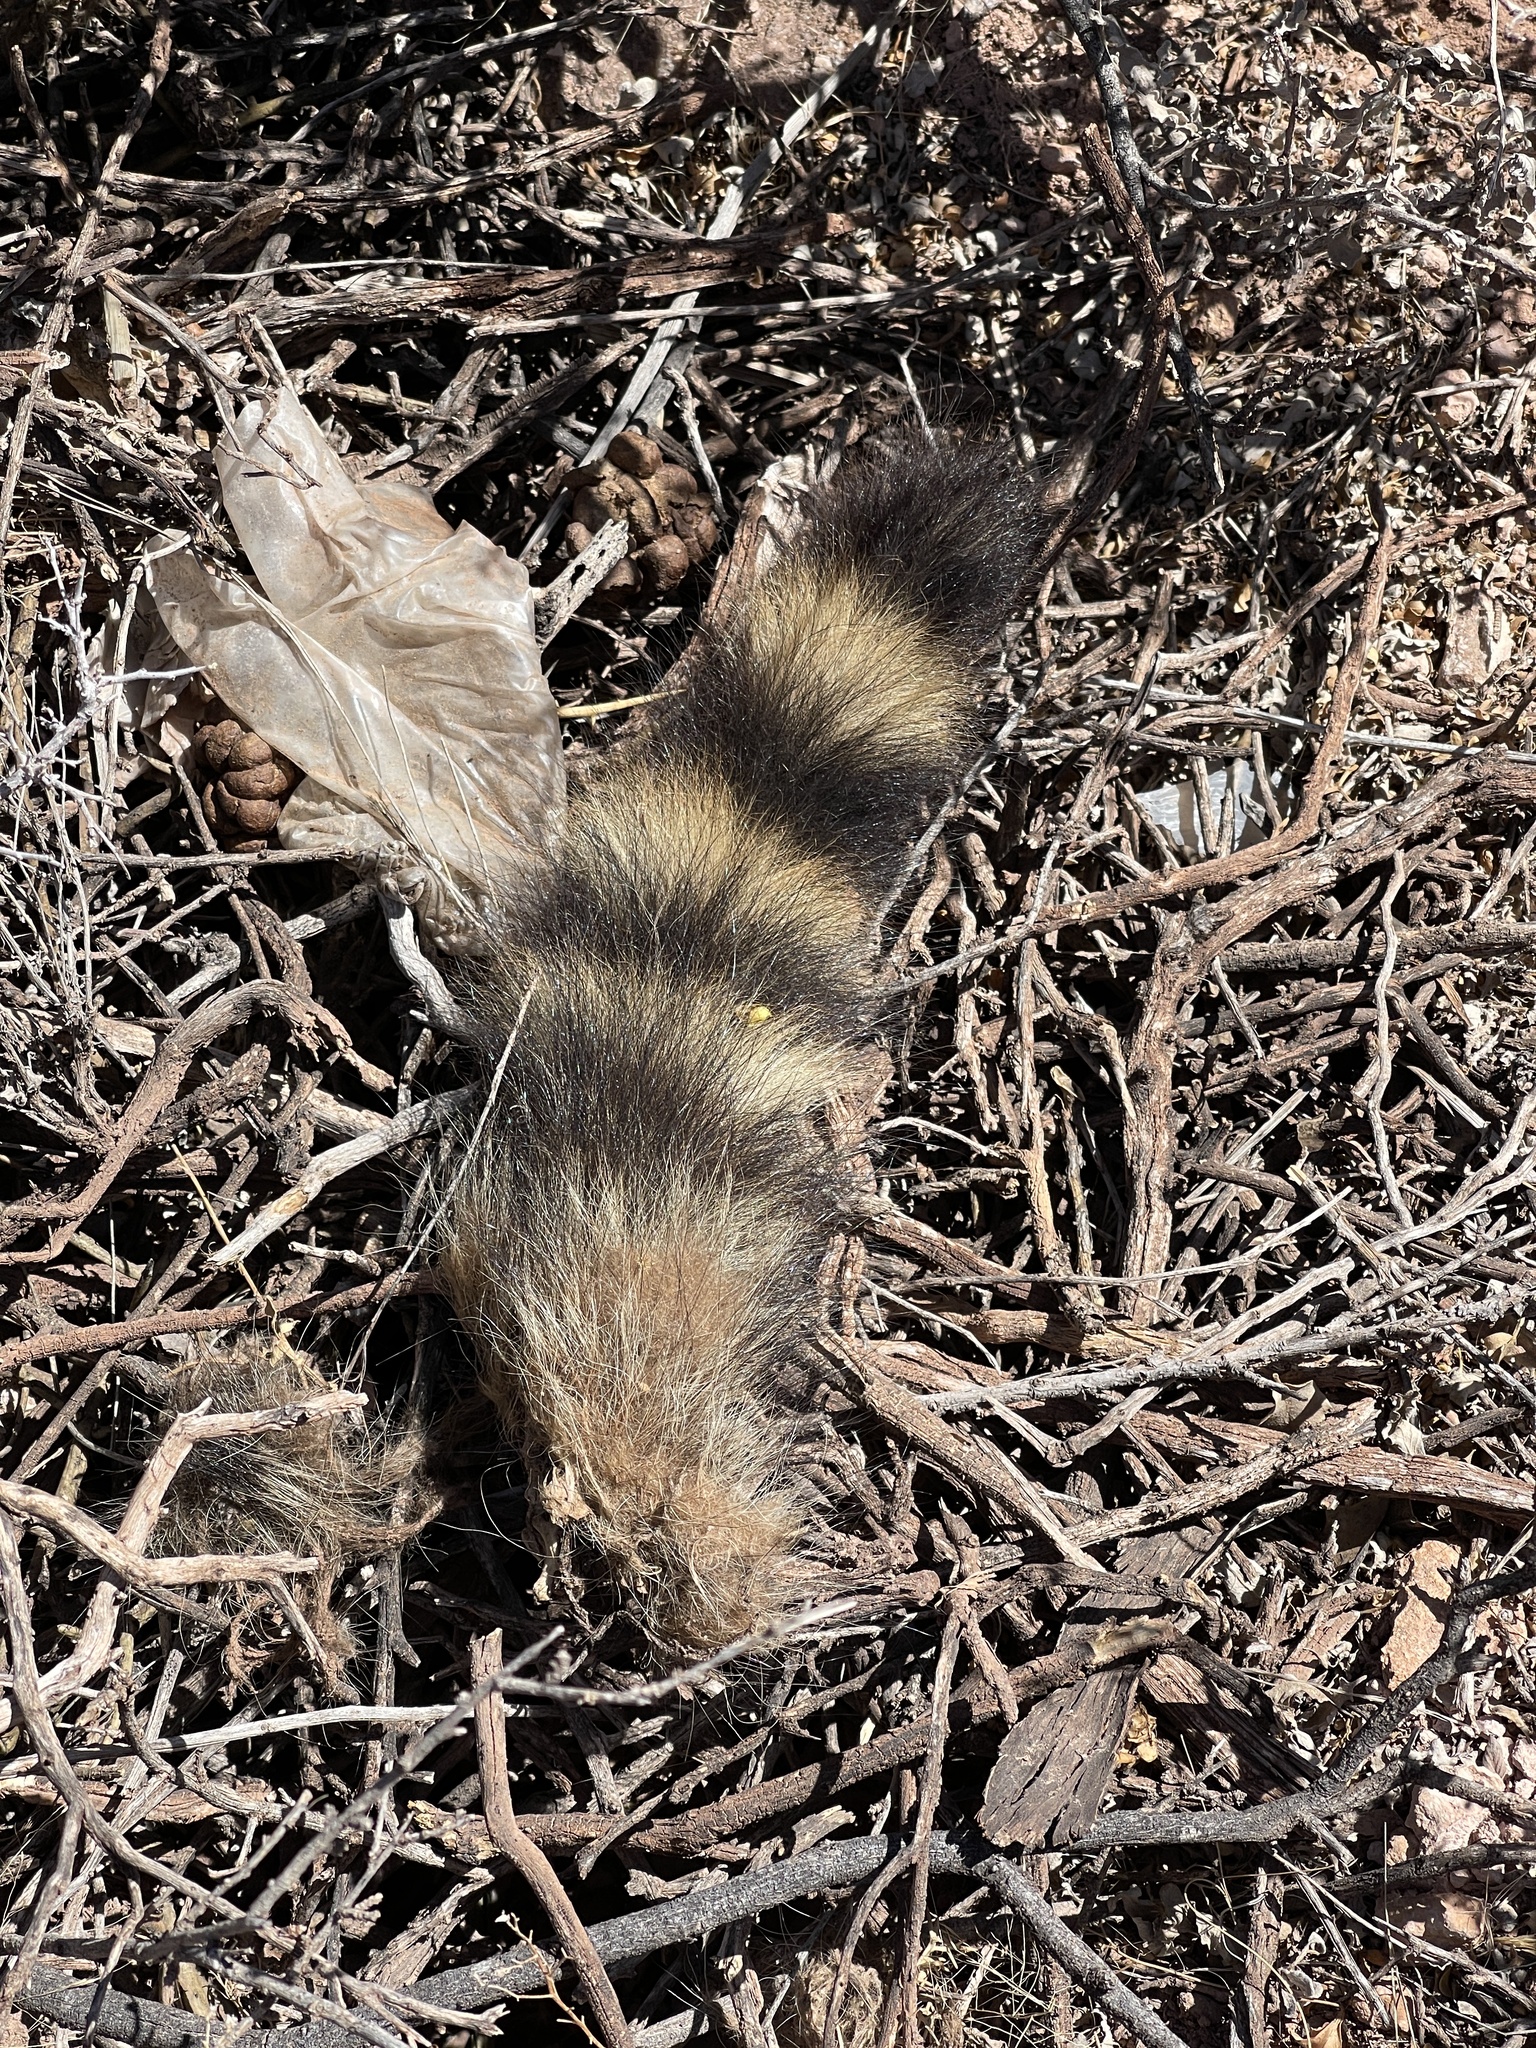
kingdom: Animalia
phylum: Chordata
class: Mammalia
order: Carnivora
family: Procyonidae
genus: Procyon
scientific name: Procyon lotor
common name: Raccoon
